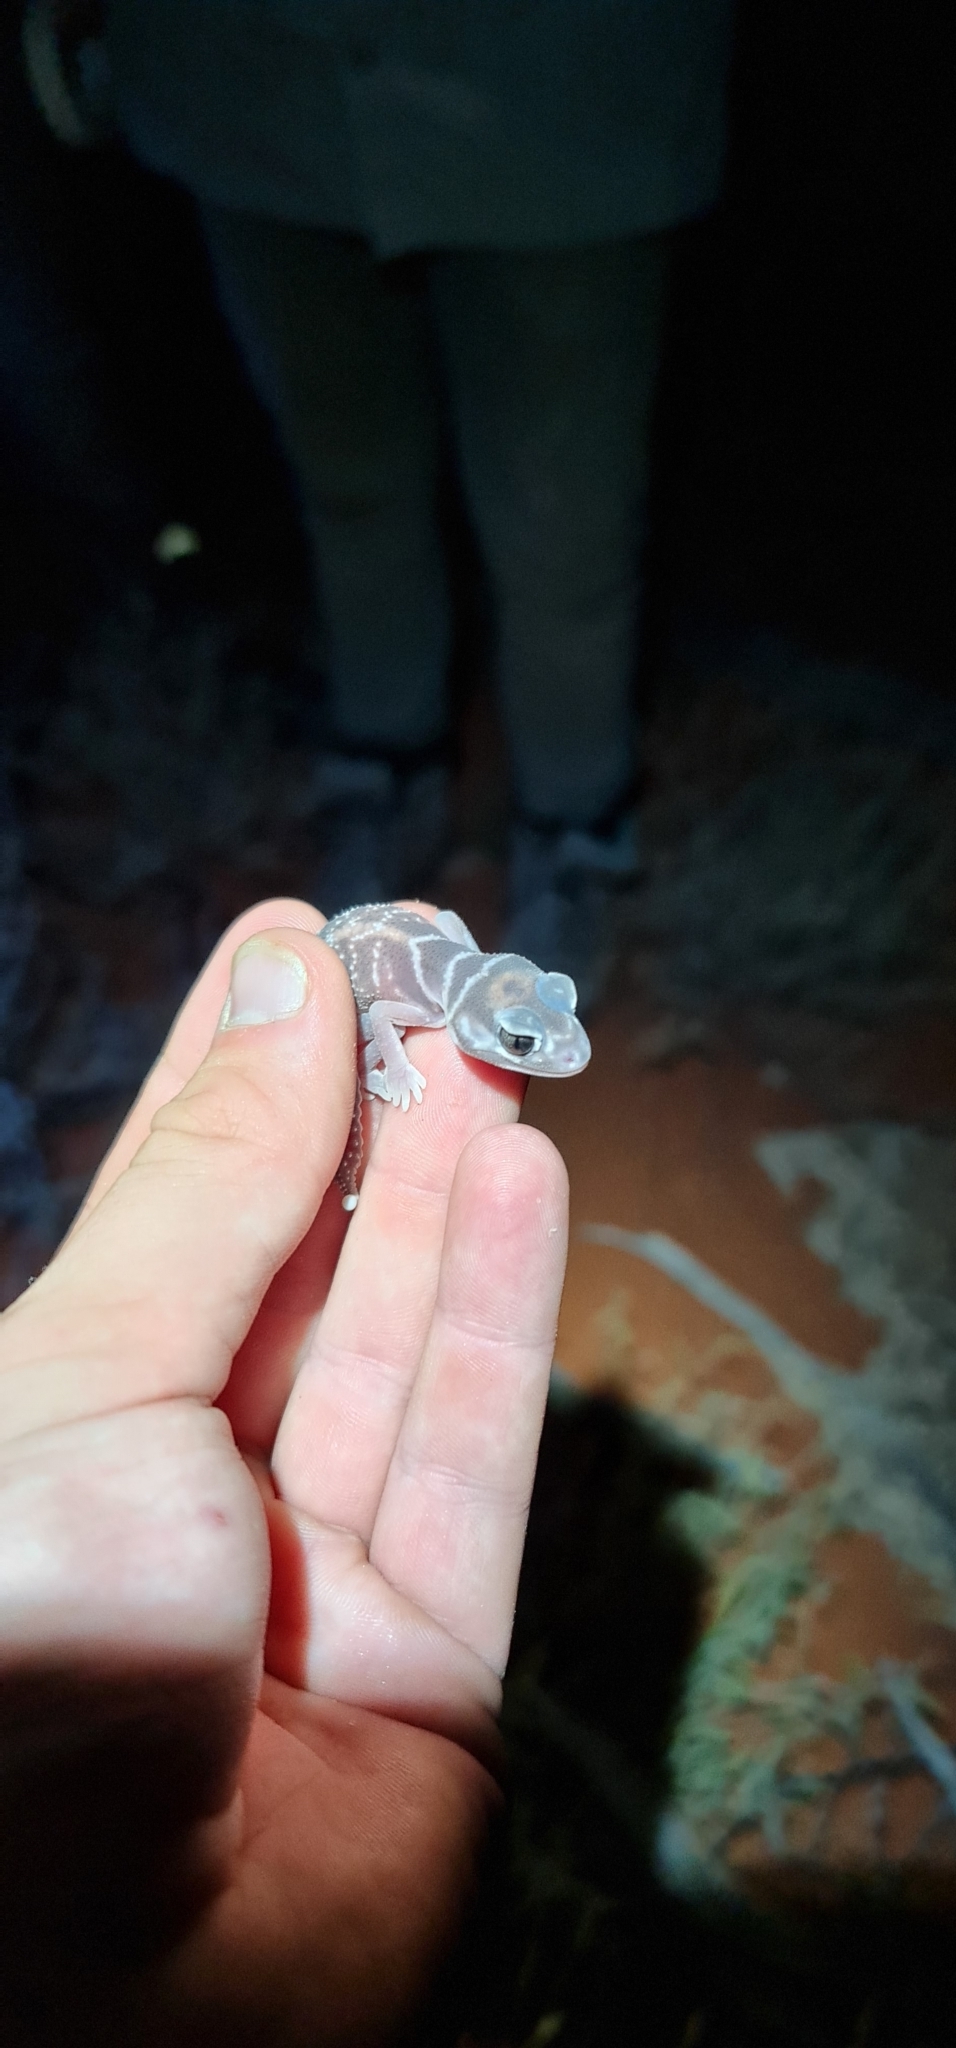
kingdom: Animalia
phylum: Chordata
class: Squamata
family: Carphodactylidae
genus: Nephrurus
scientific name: Nephrurus levis
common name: Smooth knob-tailed gecko
